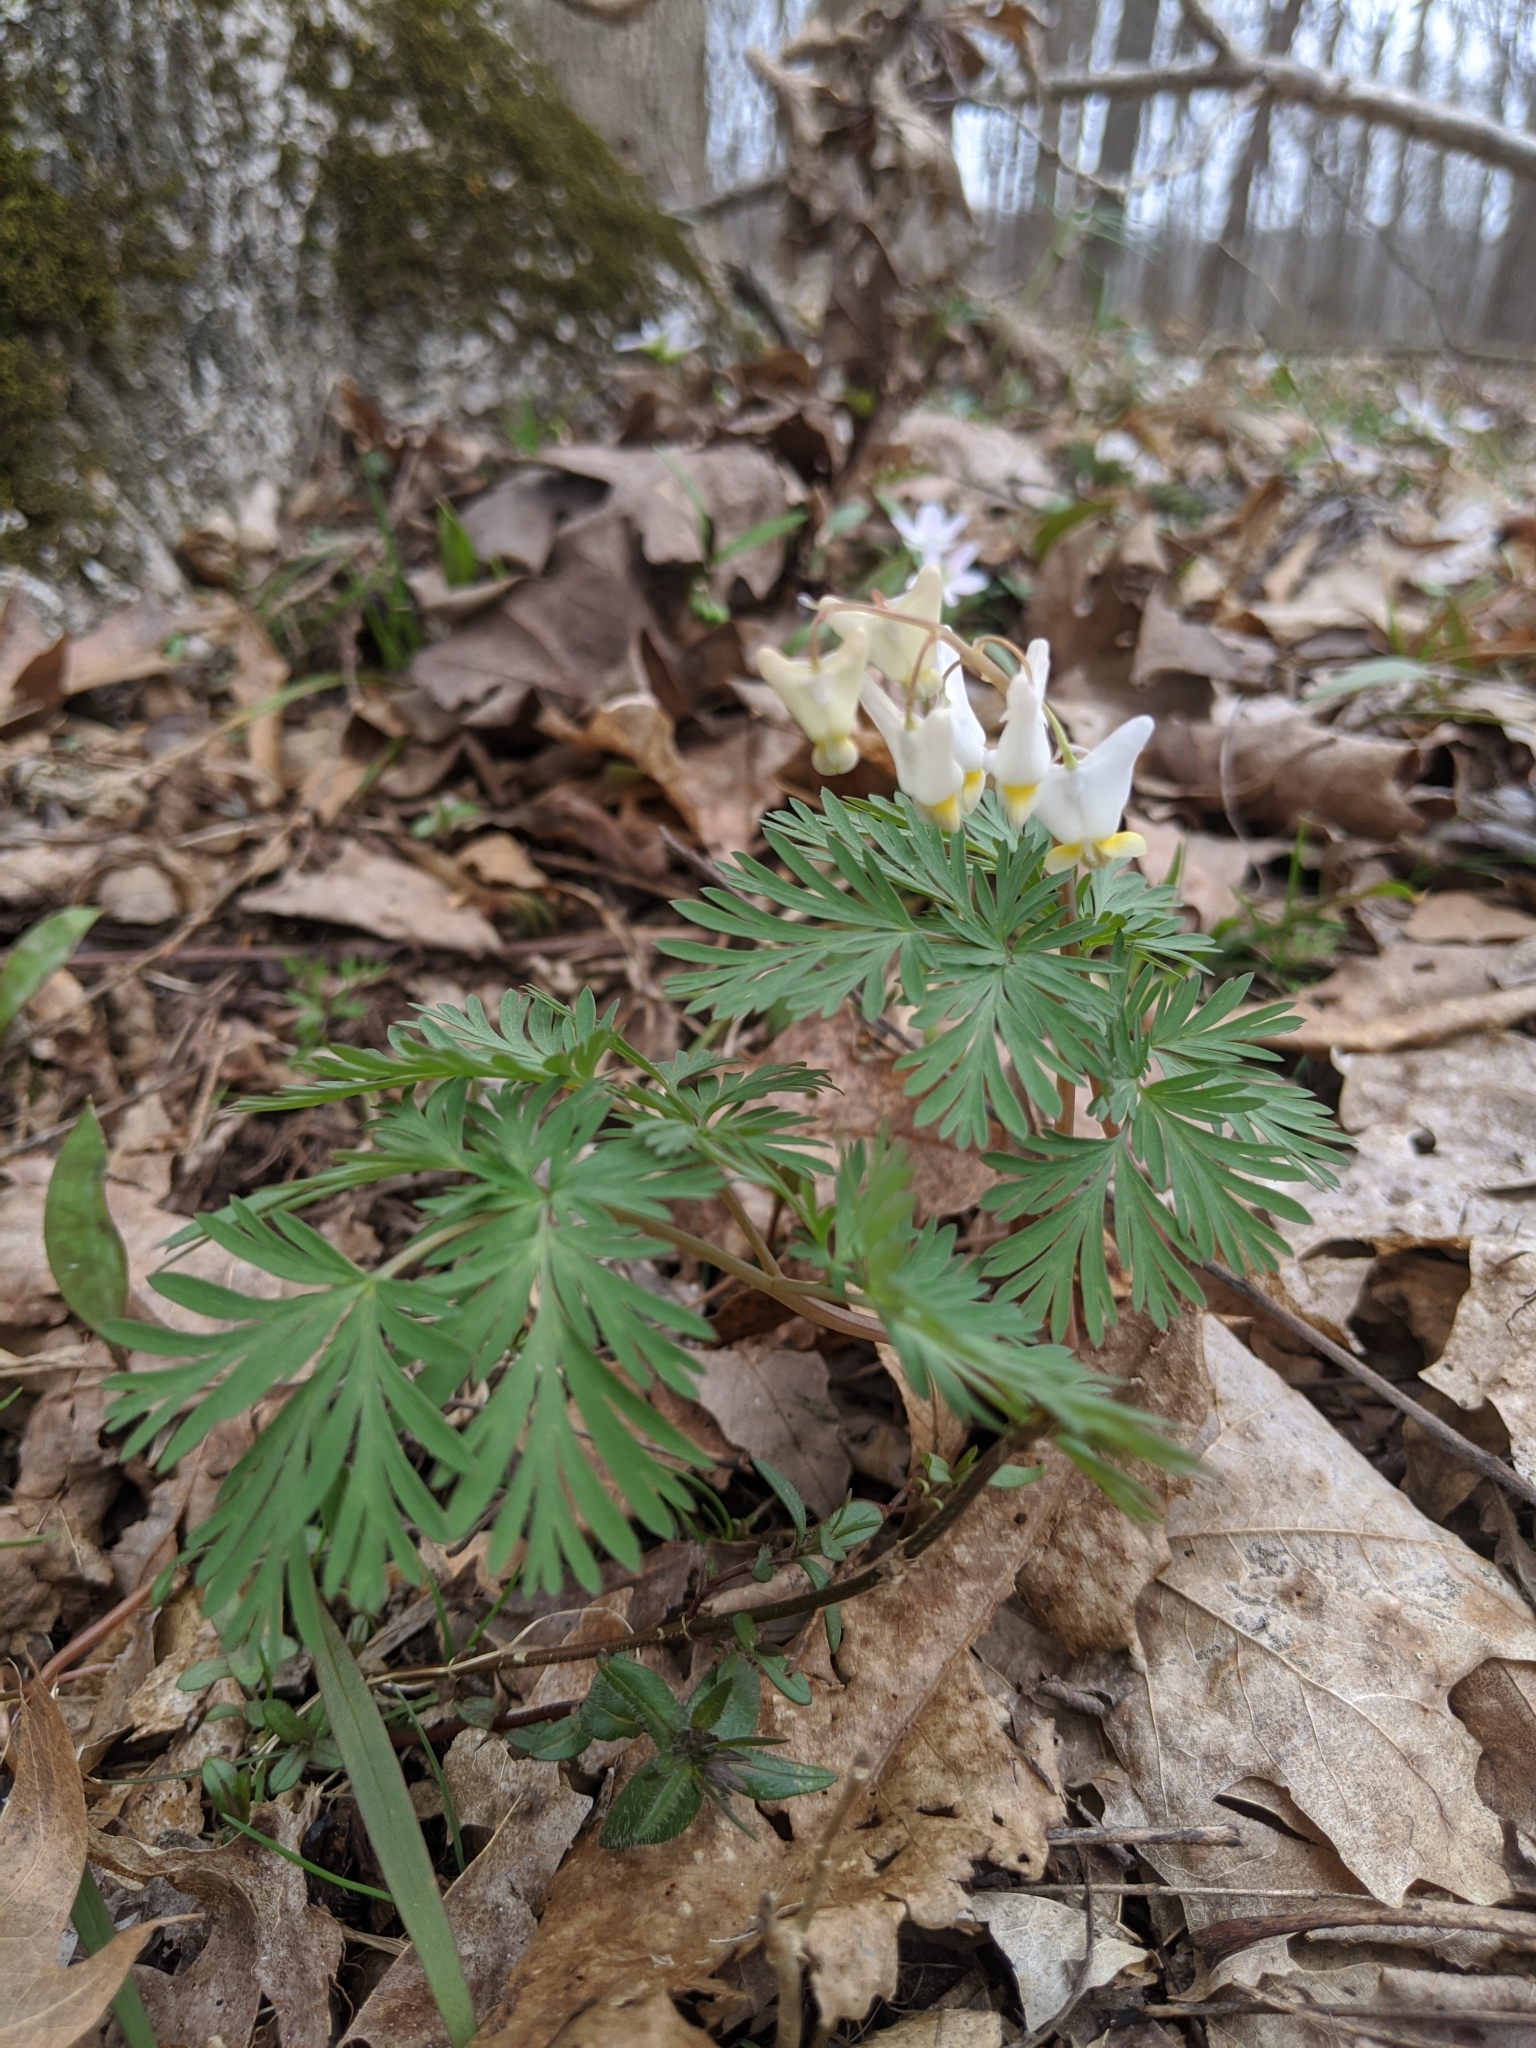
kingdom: Plantae
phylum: Tracheophyta
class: Magnoliopsida
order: Ranunculales
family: Papaveraceae
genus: Dicentra
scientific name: Dicentra cucullaria
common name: Dutchman's breeches
